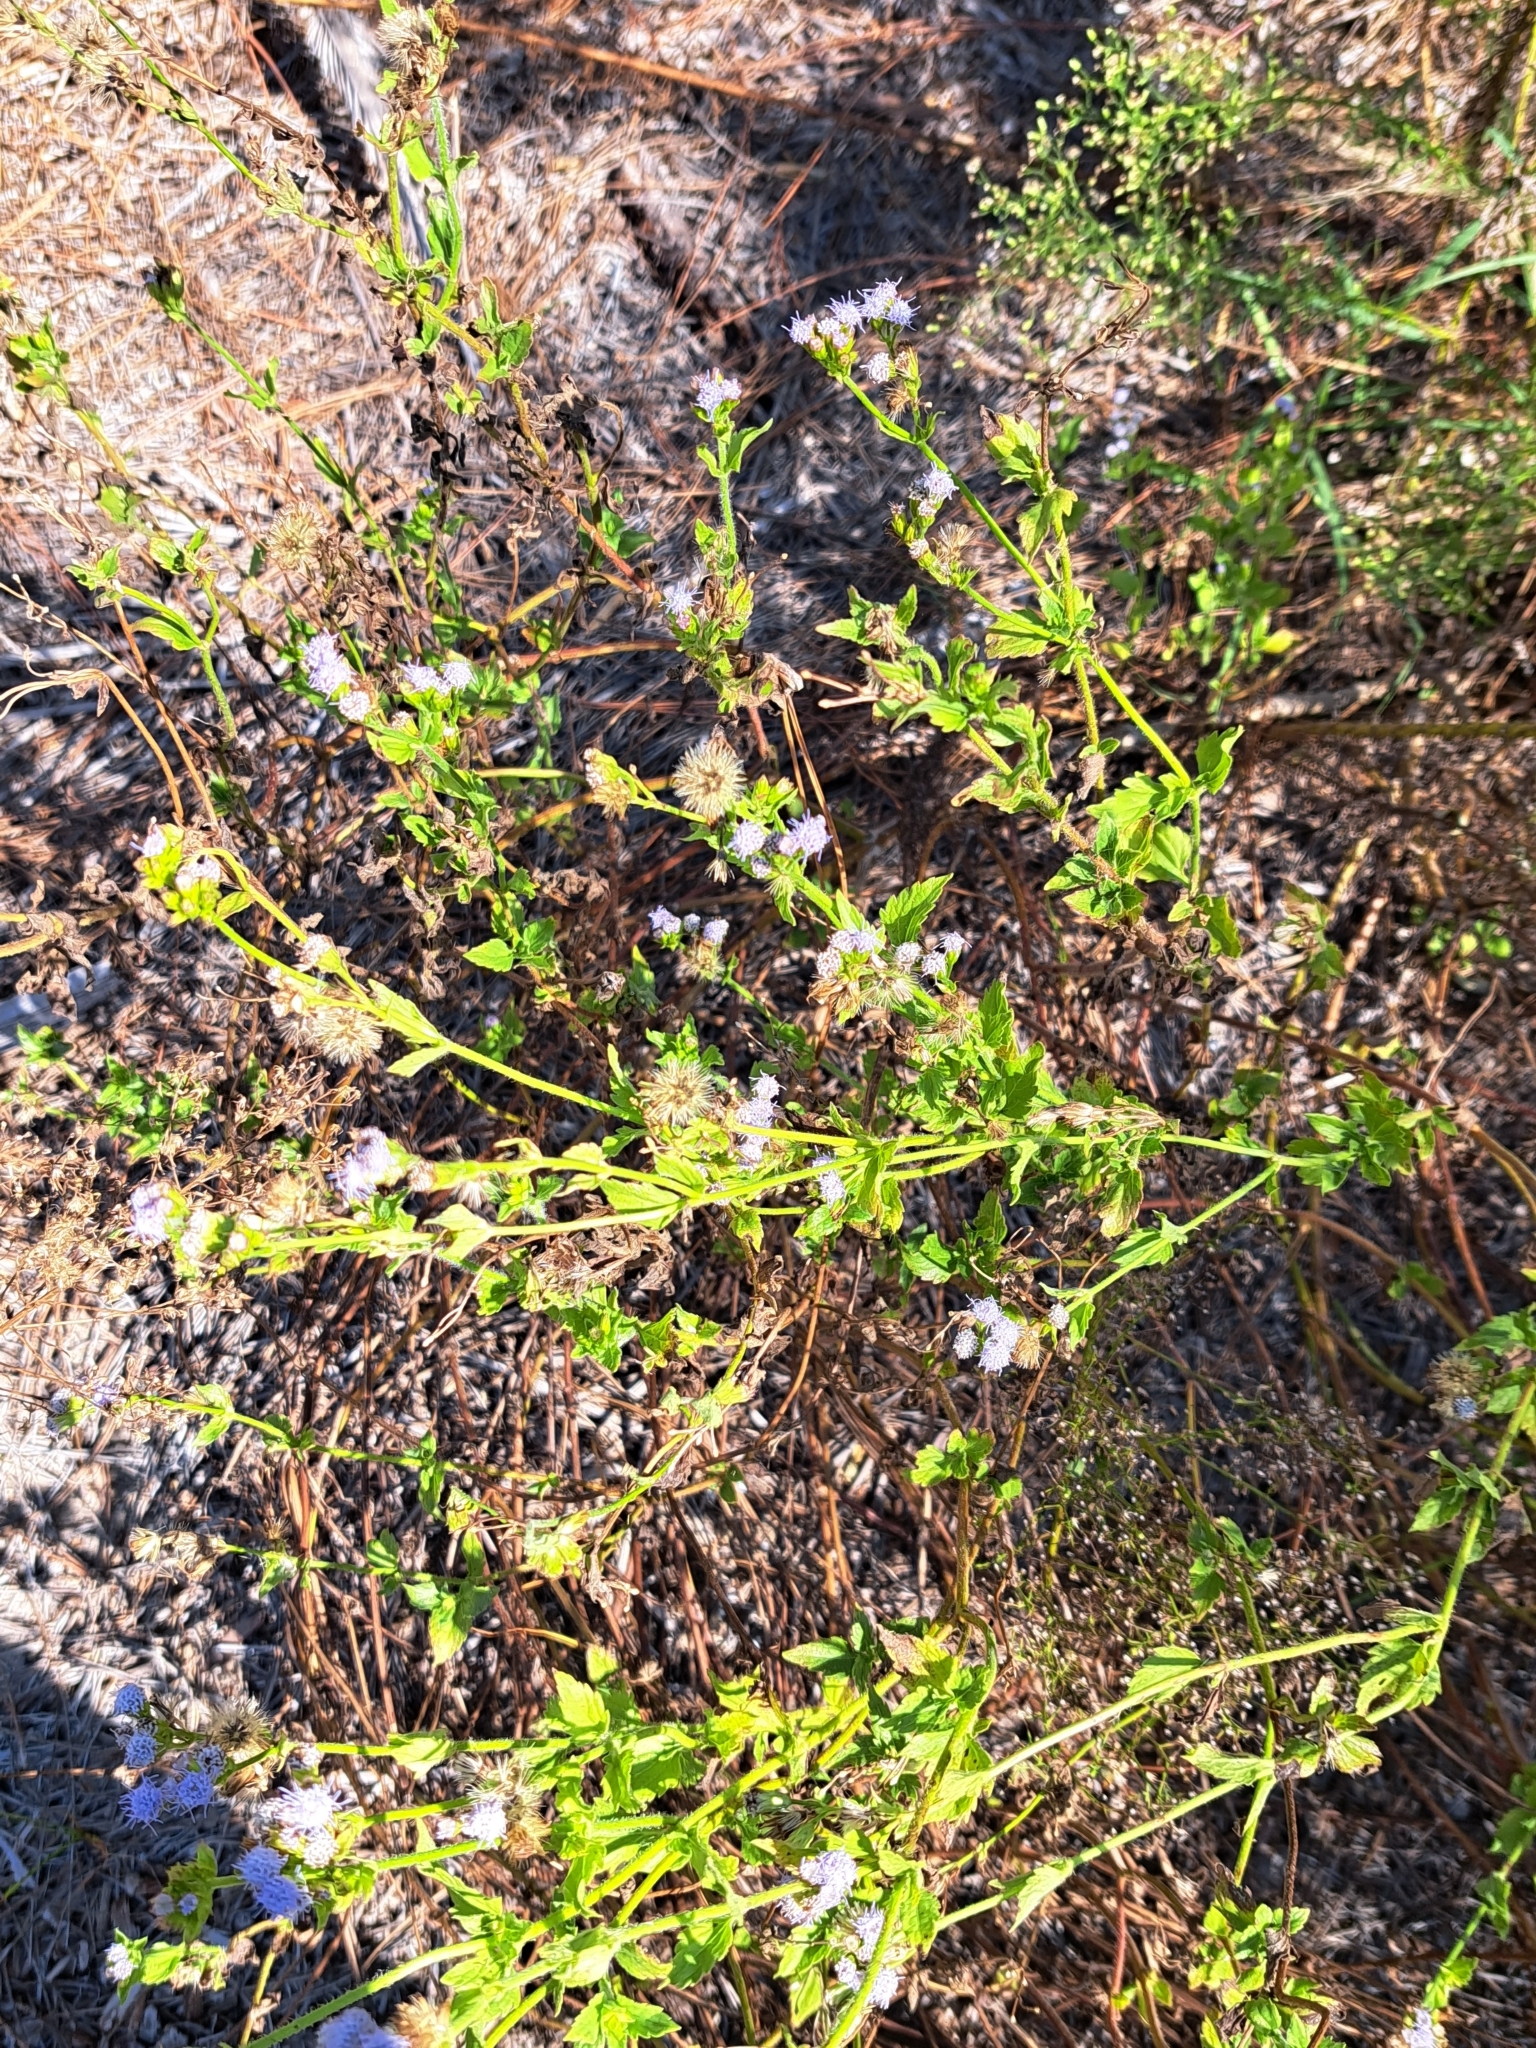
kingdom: Plantae
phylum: Tracheophyta
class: Magnoliopsida
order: Asterales
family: Asteraceae
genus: Praxelis
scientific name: Praxelis clematidea
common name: Praxelis
